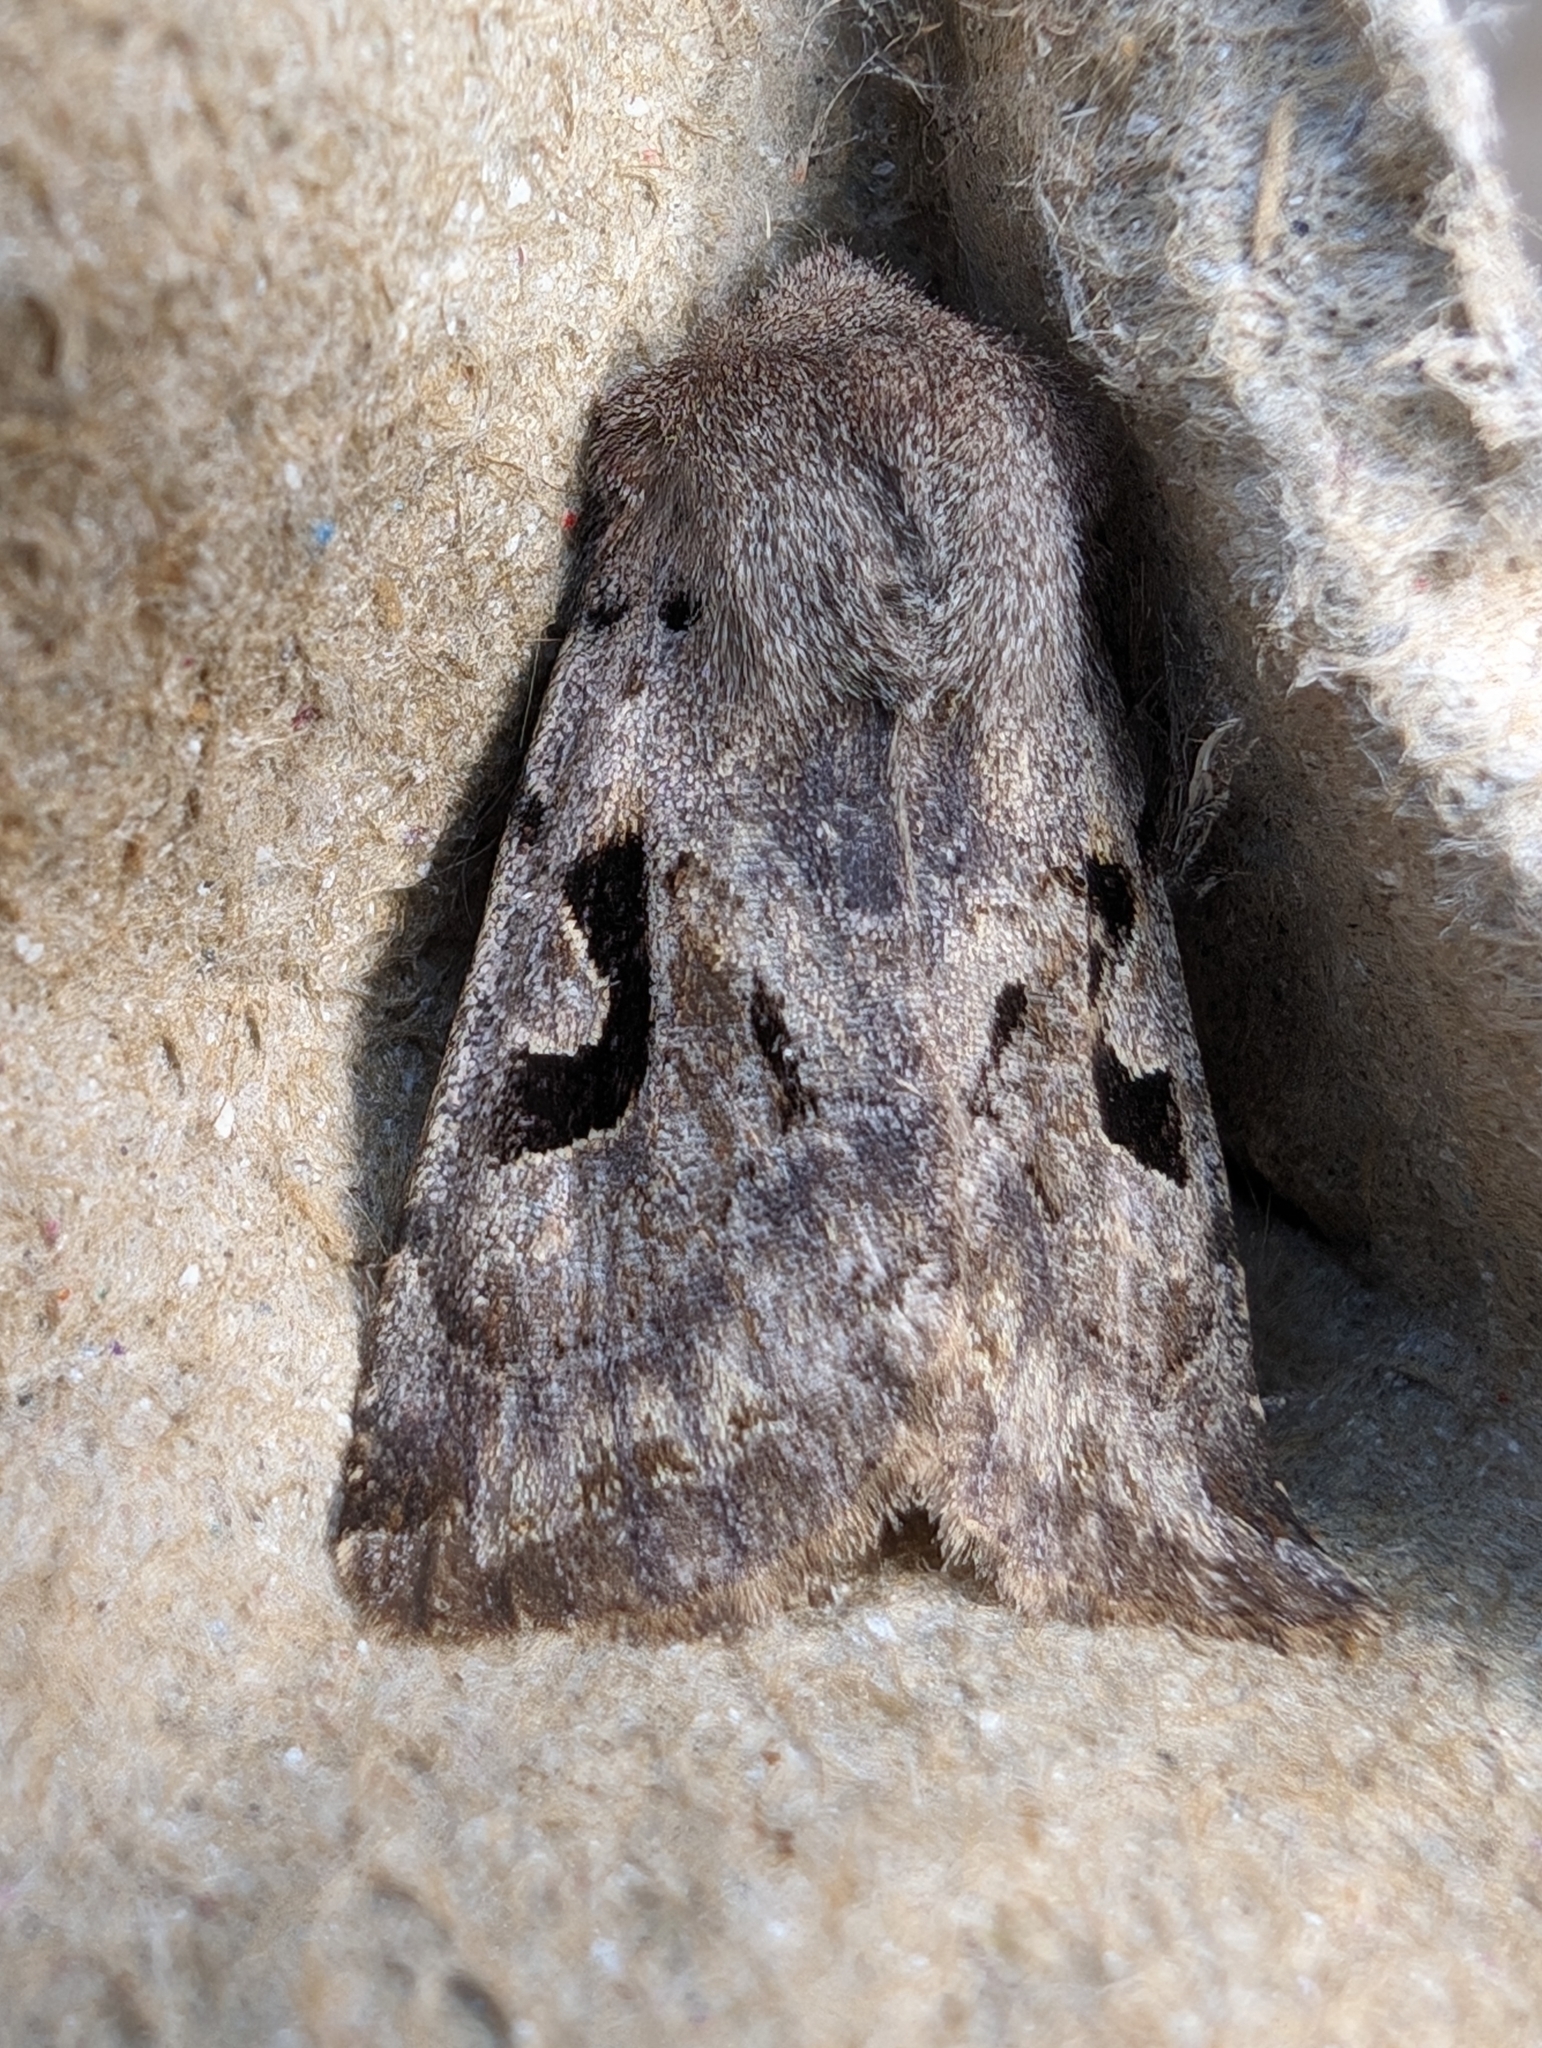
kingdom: Animalia
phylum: Arthropoda
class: Insecta
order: Lepidoptera
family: Noctuidae
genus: Orthosia
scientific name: Orthosia gothica
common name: Hebrew character
